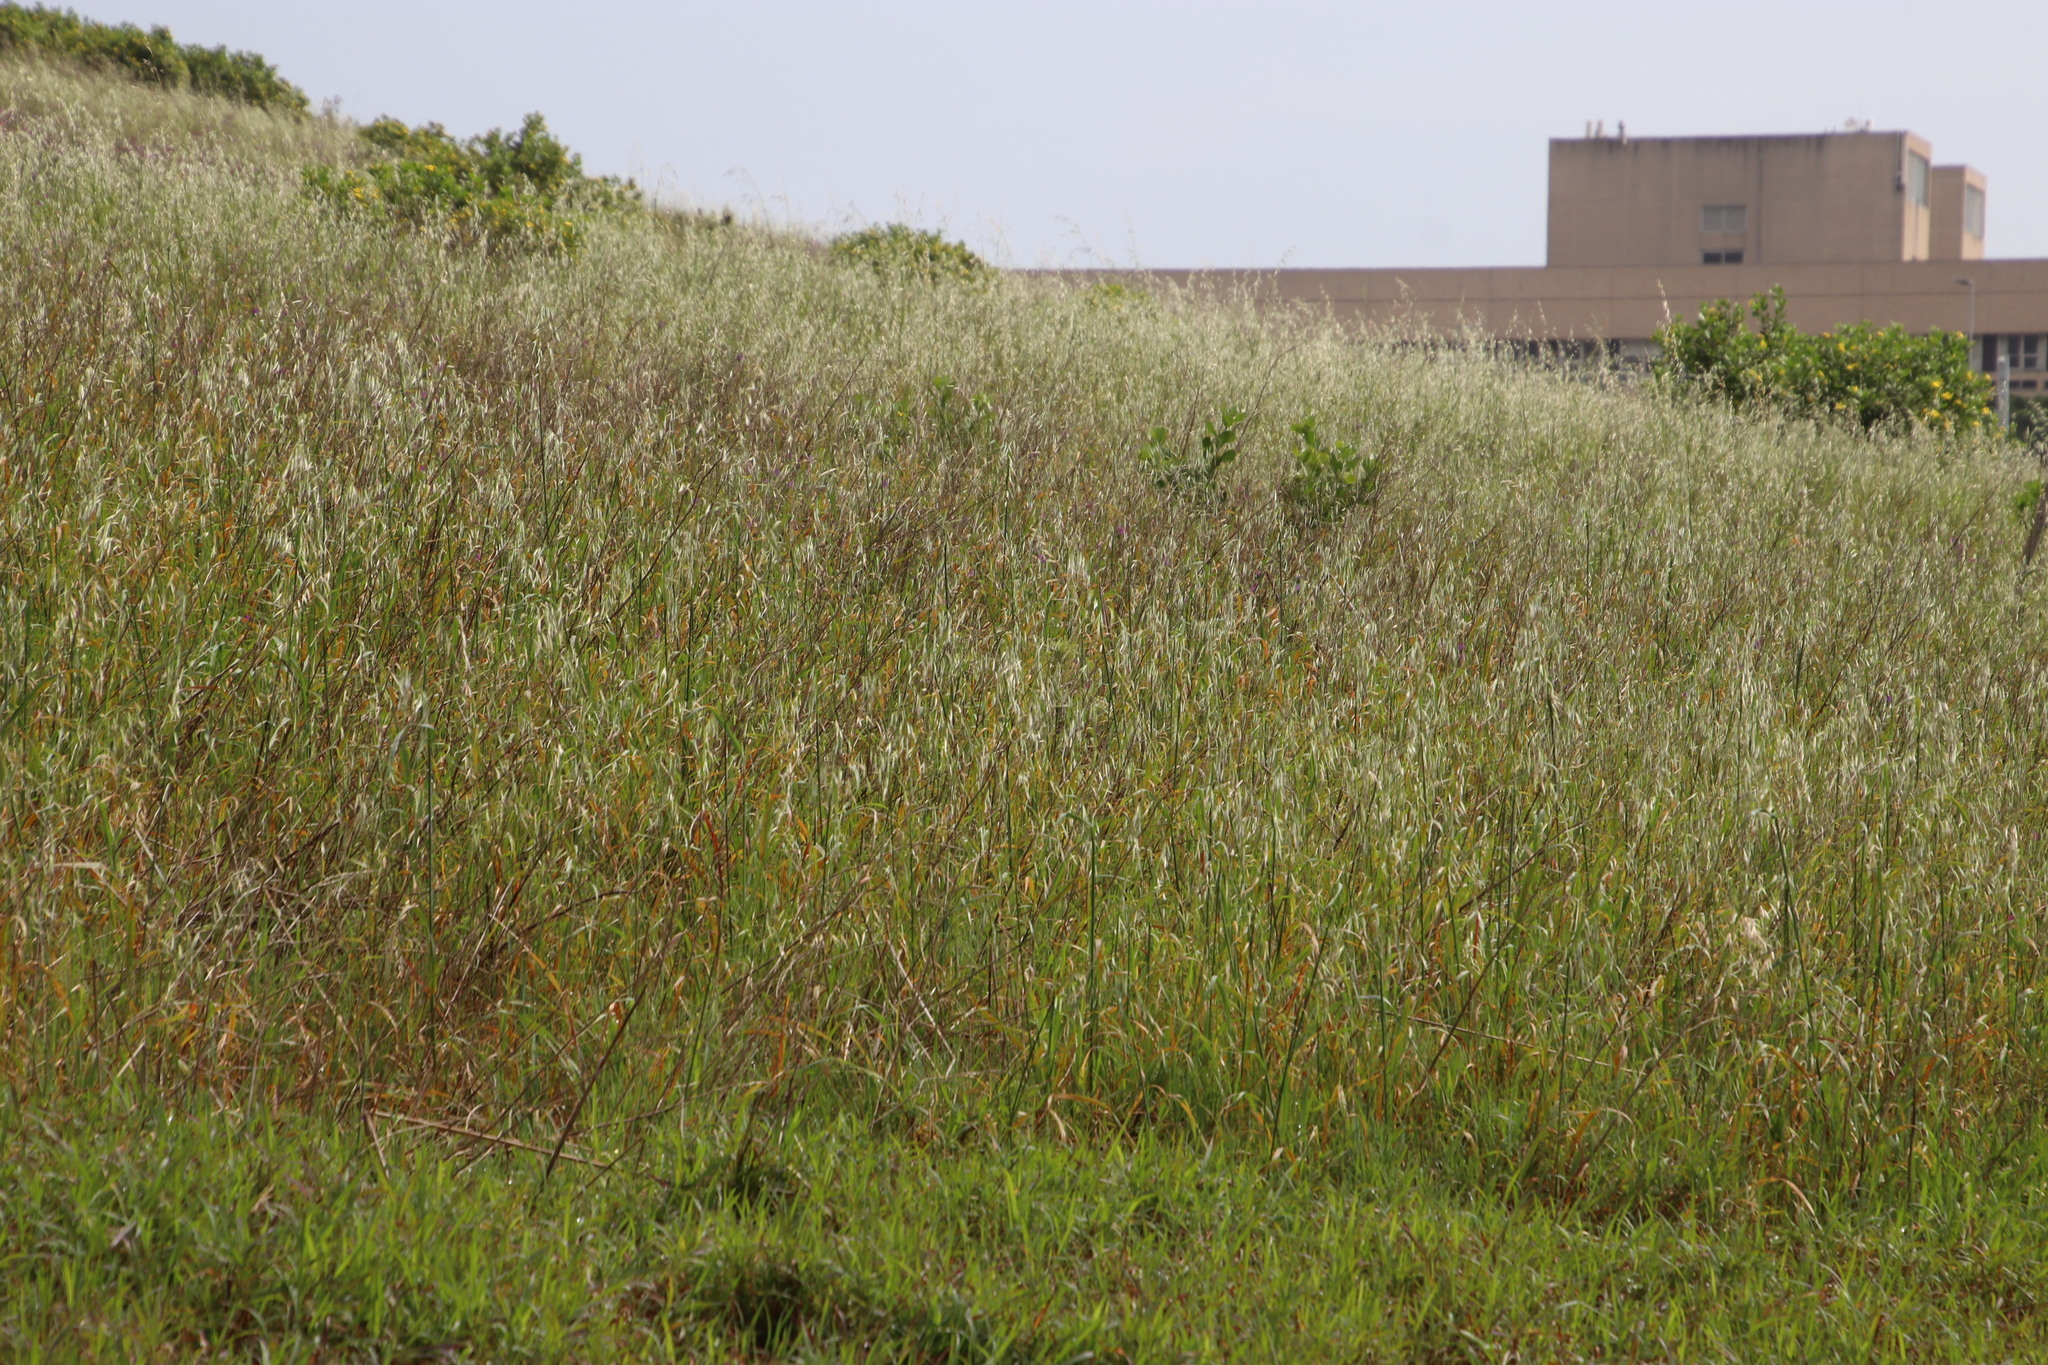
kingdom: Plantae
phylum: Tracheophyta
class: Liliopsida
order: Poales
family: Poaceae
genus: Avena
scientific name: Avena fatua
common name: Wild oat
